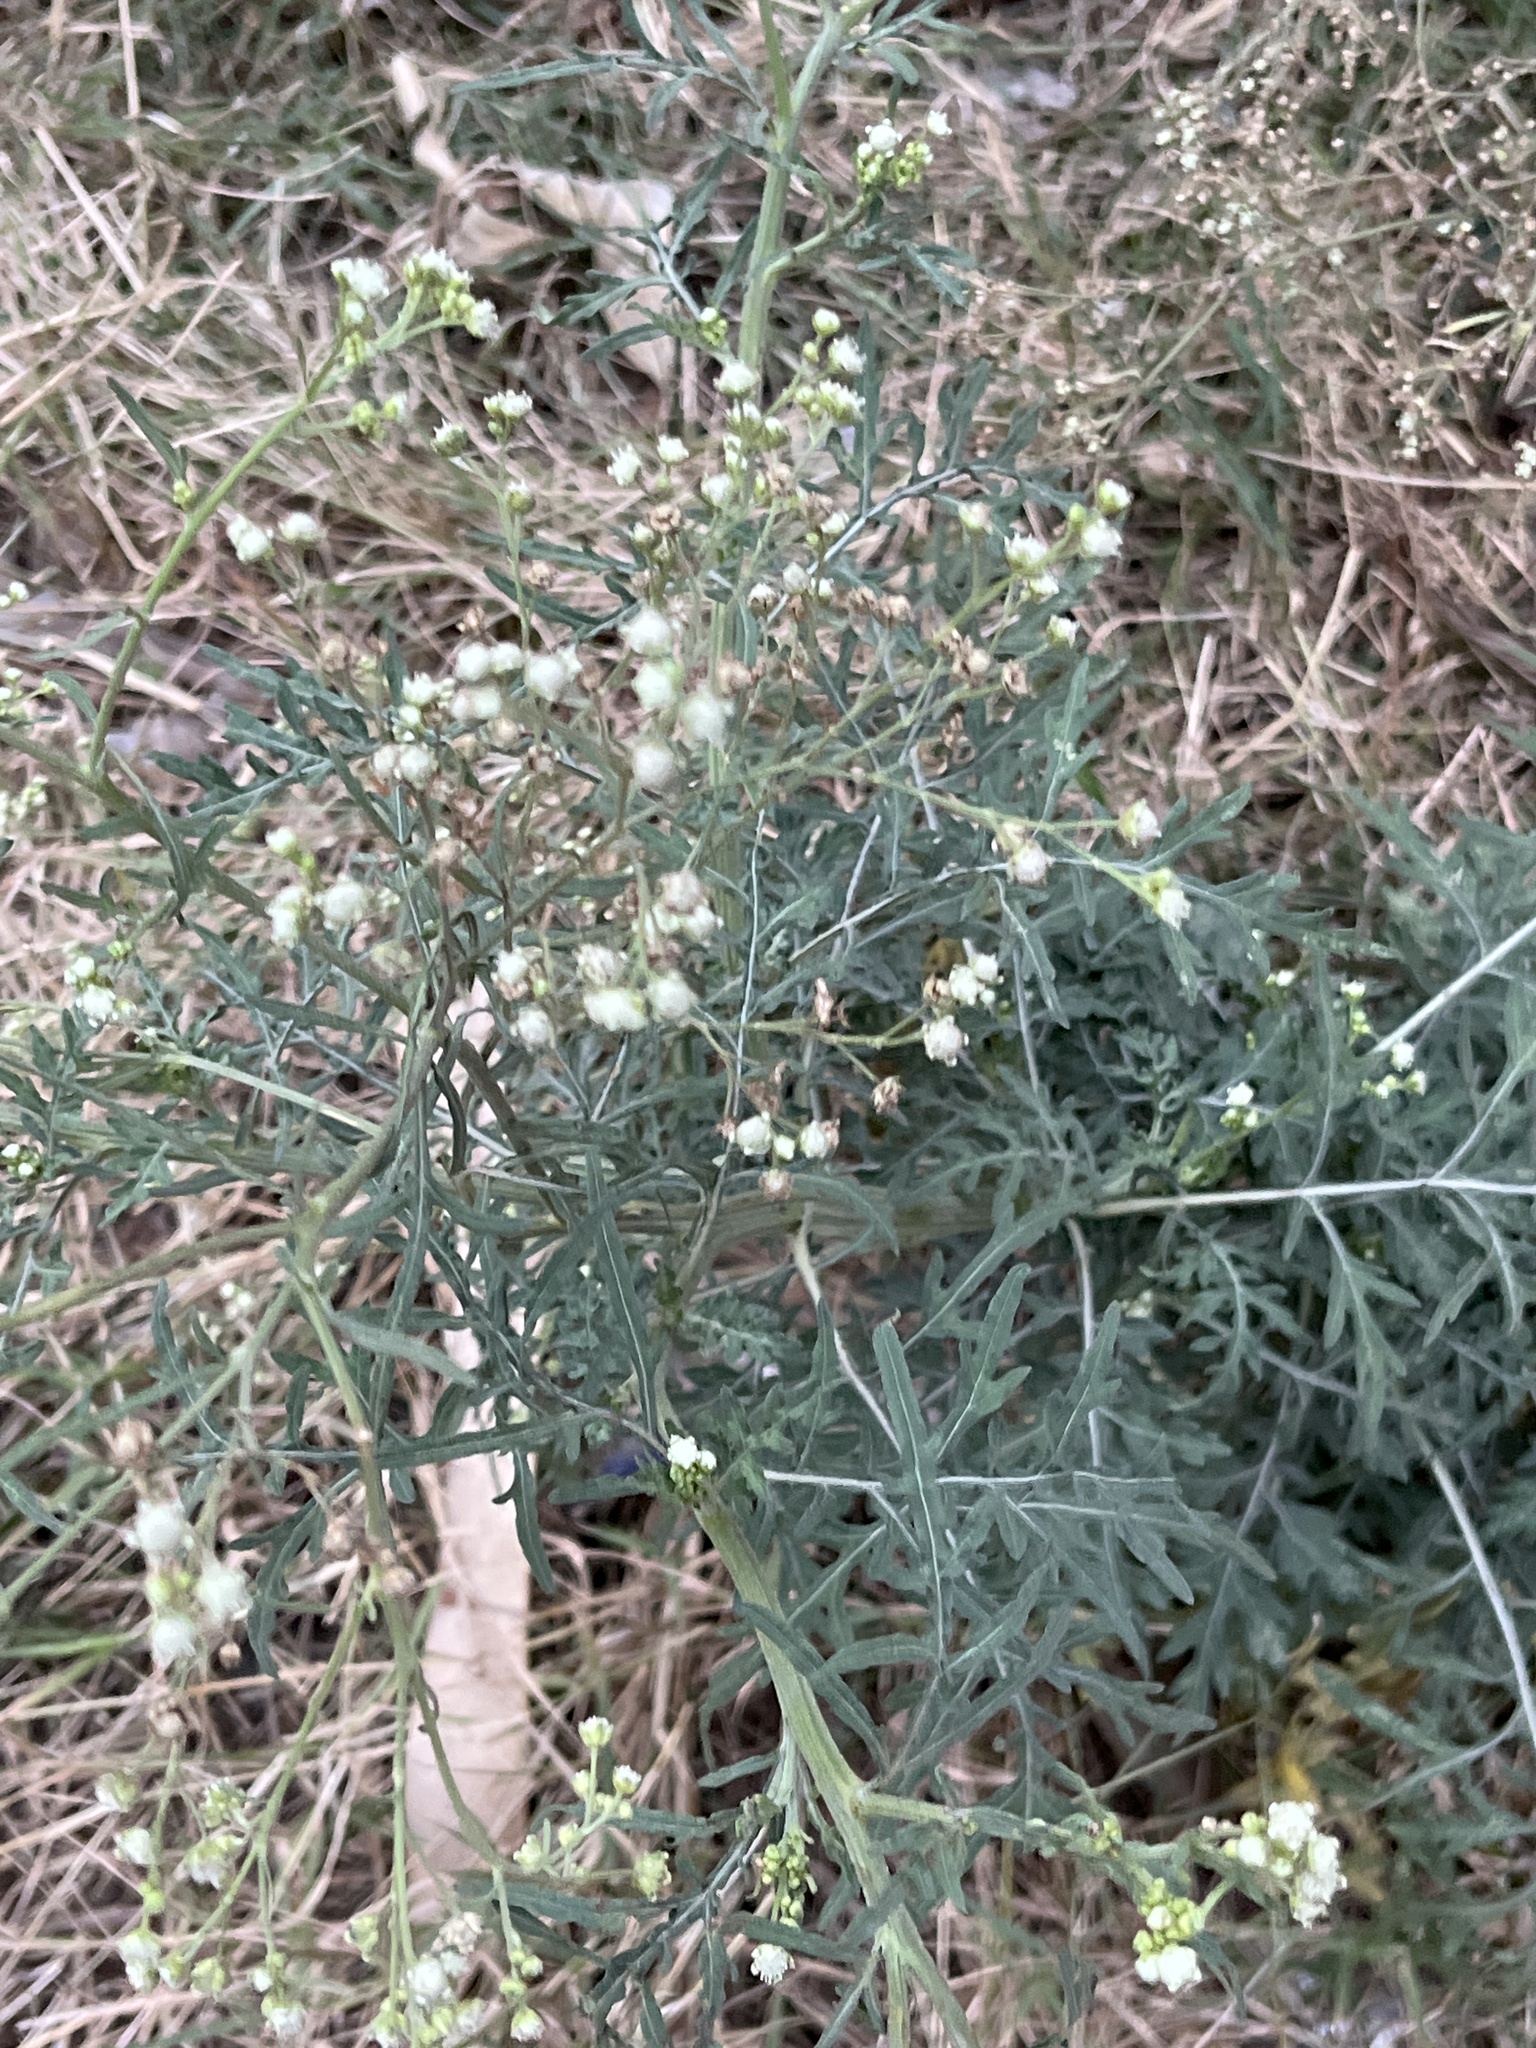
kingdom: Plantae
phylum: Tracheophyta
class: Magnoliopsida
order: Asterales
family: Asteraceae
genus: Parthenium
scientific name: Parthenium hysterophorus
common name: Santa maria feverfew
